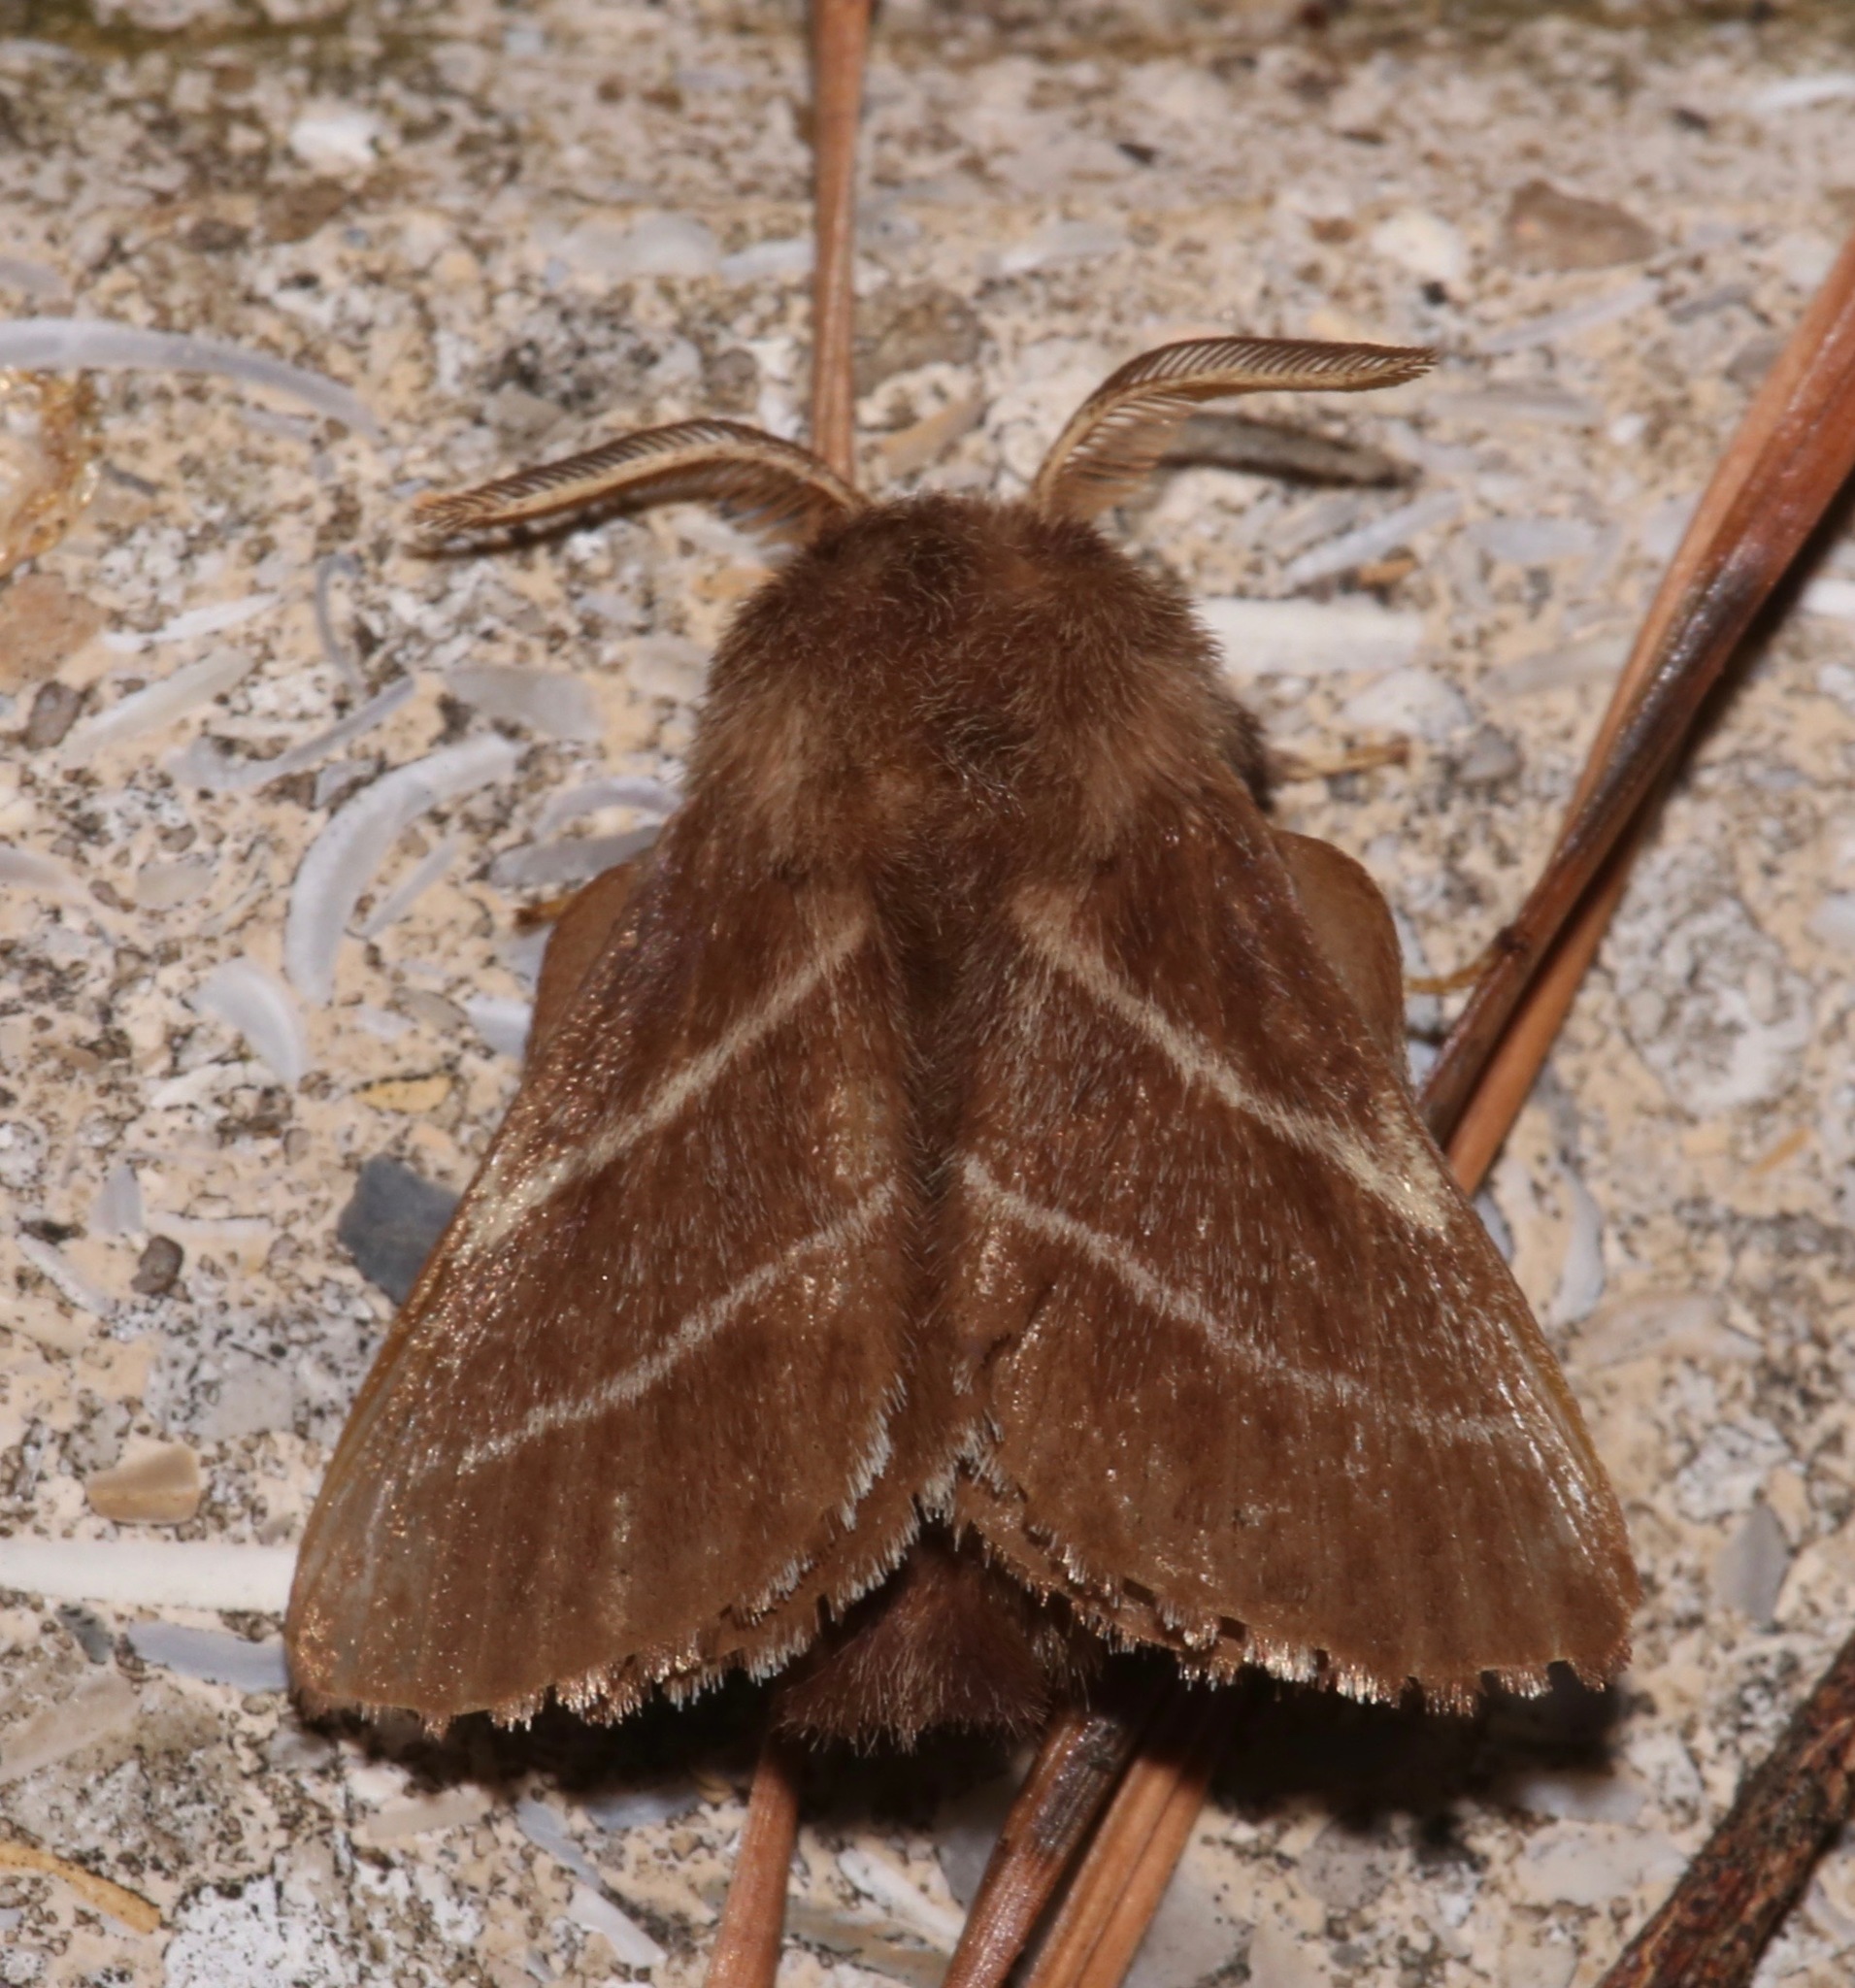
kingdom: Animalia
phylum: Arthropoda
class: Insecta
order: Lepidoptera
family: Lasiocampidae
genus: Malacosoma
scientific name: Malacosoma americana
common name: Eastern tent caterpillar moth
